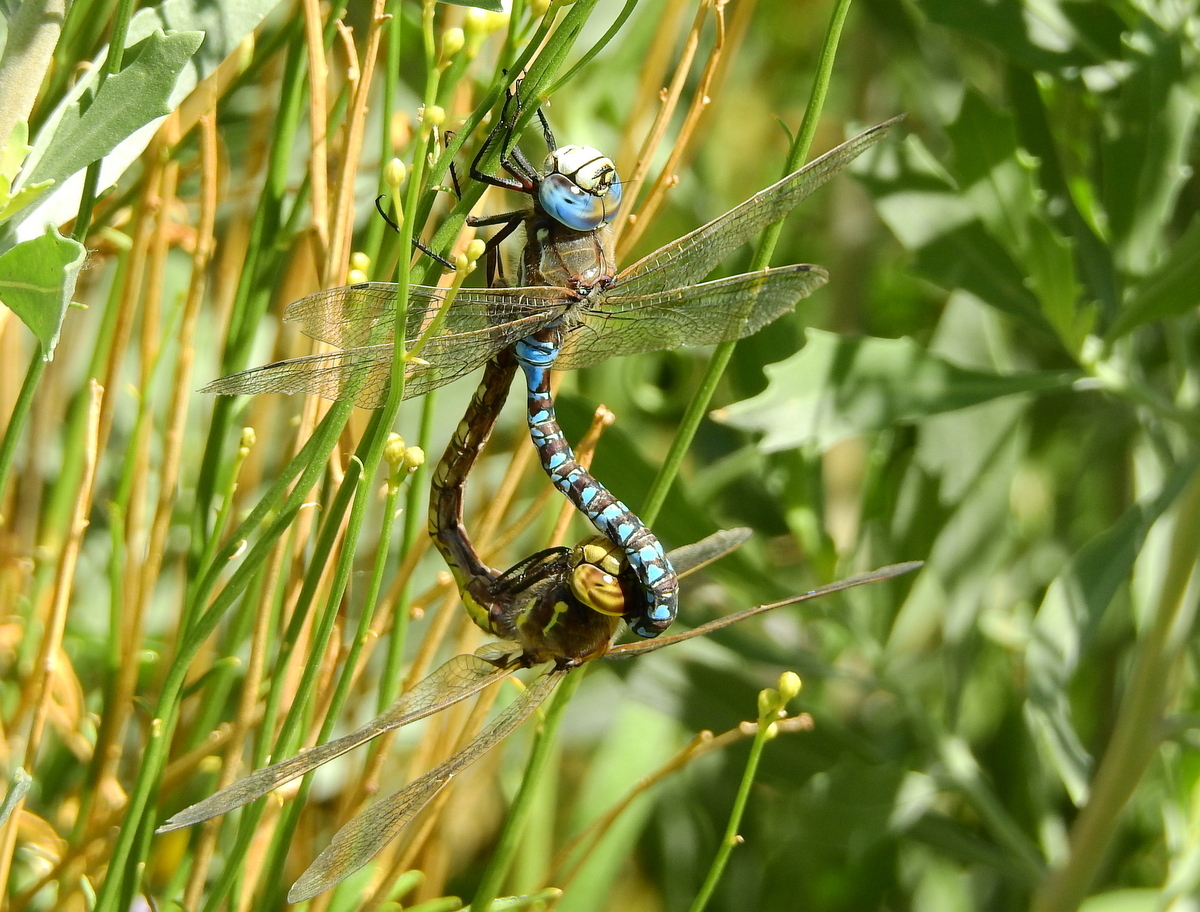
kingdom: Animalia
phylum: Arthropoda
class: Insecta
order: Odonata
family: Aeshnidae
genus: Rhionaeschna
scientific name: Rhionaeschna variegata
